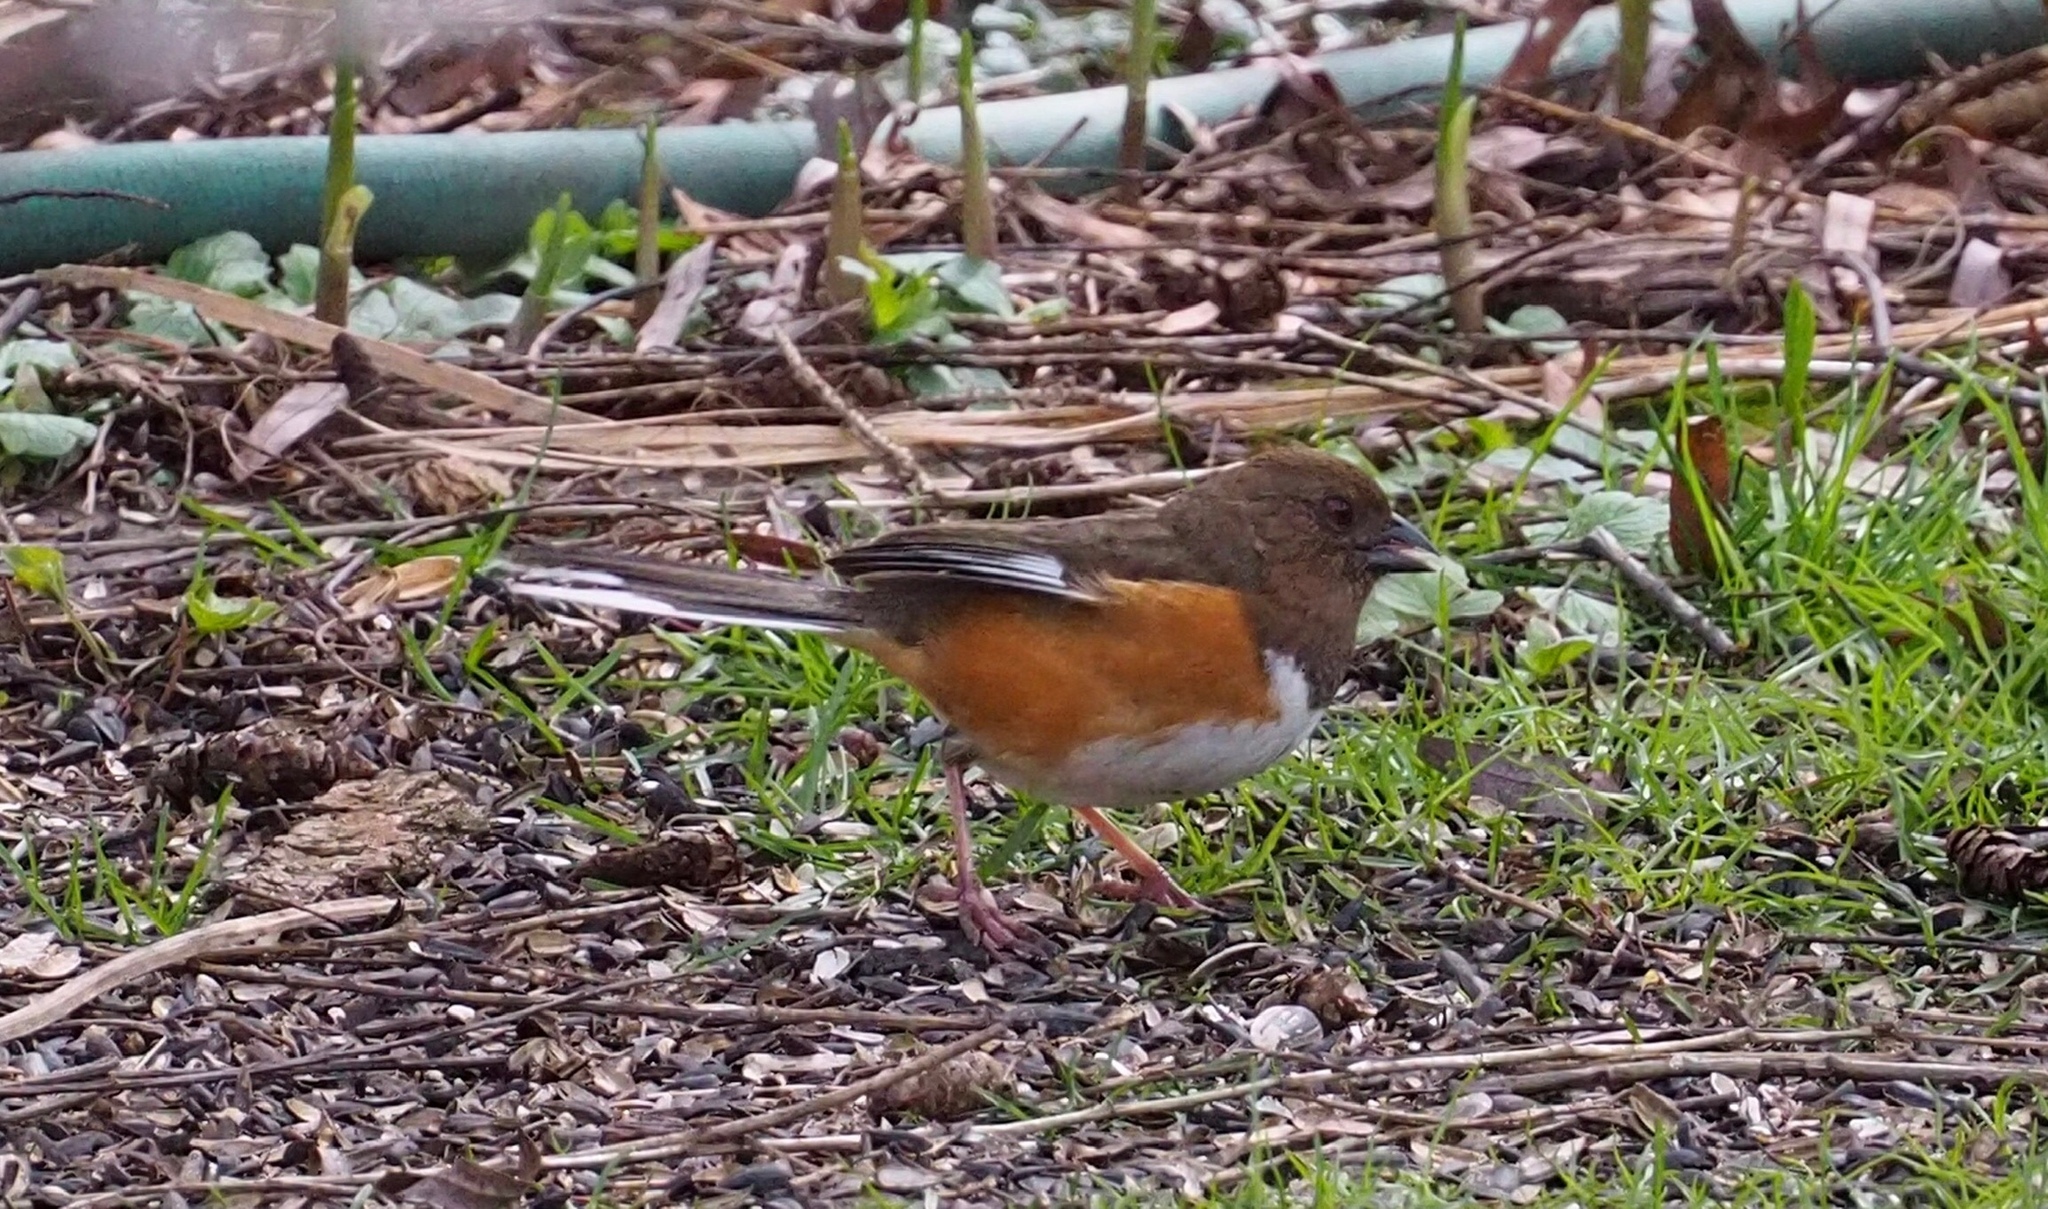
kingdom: Animalia
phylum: Chordata
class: Aves
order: Passeriformes
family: Passerellidae
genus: Pipilo
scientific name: Pipilo erythrophthalmus
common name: Eastern towhee
